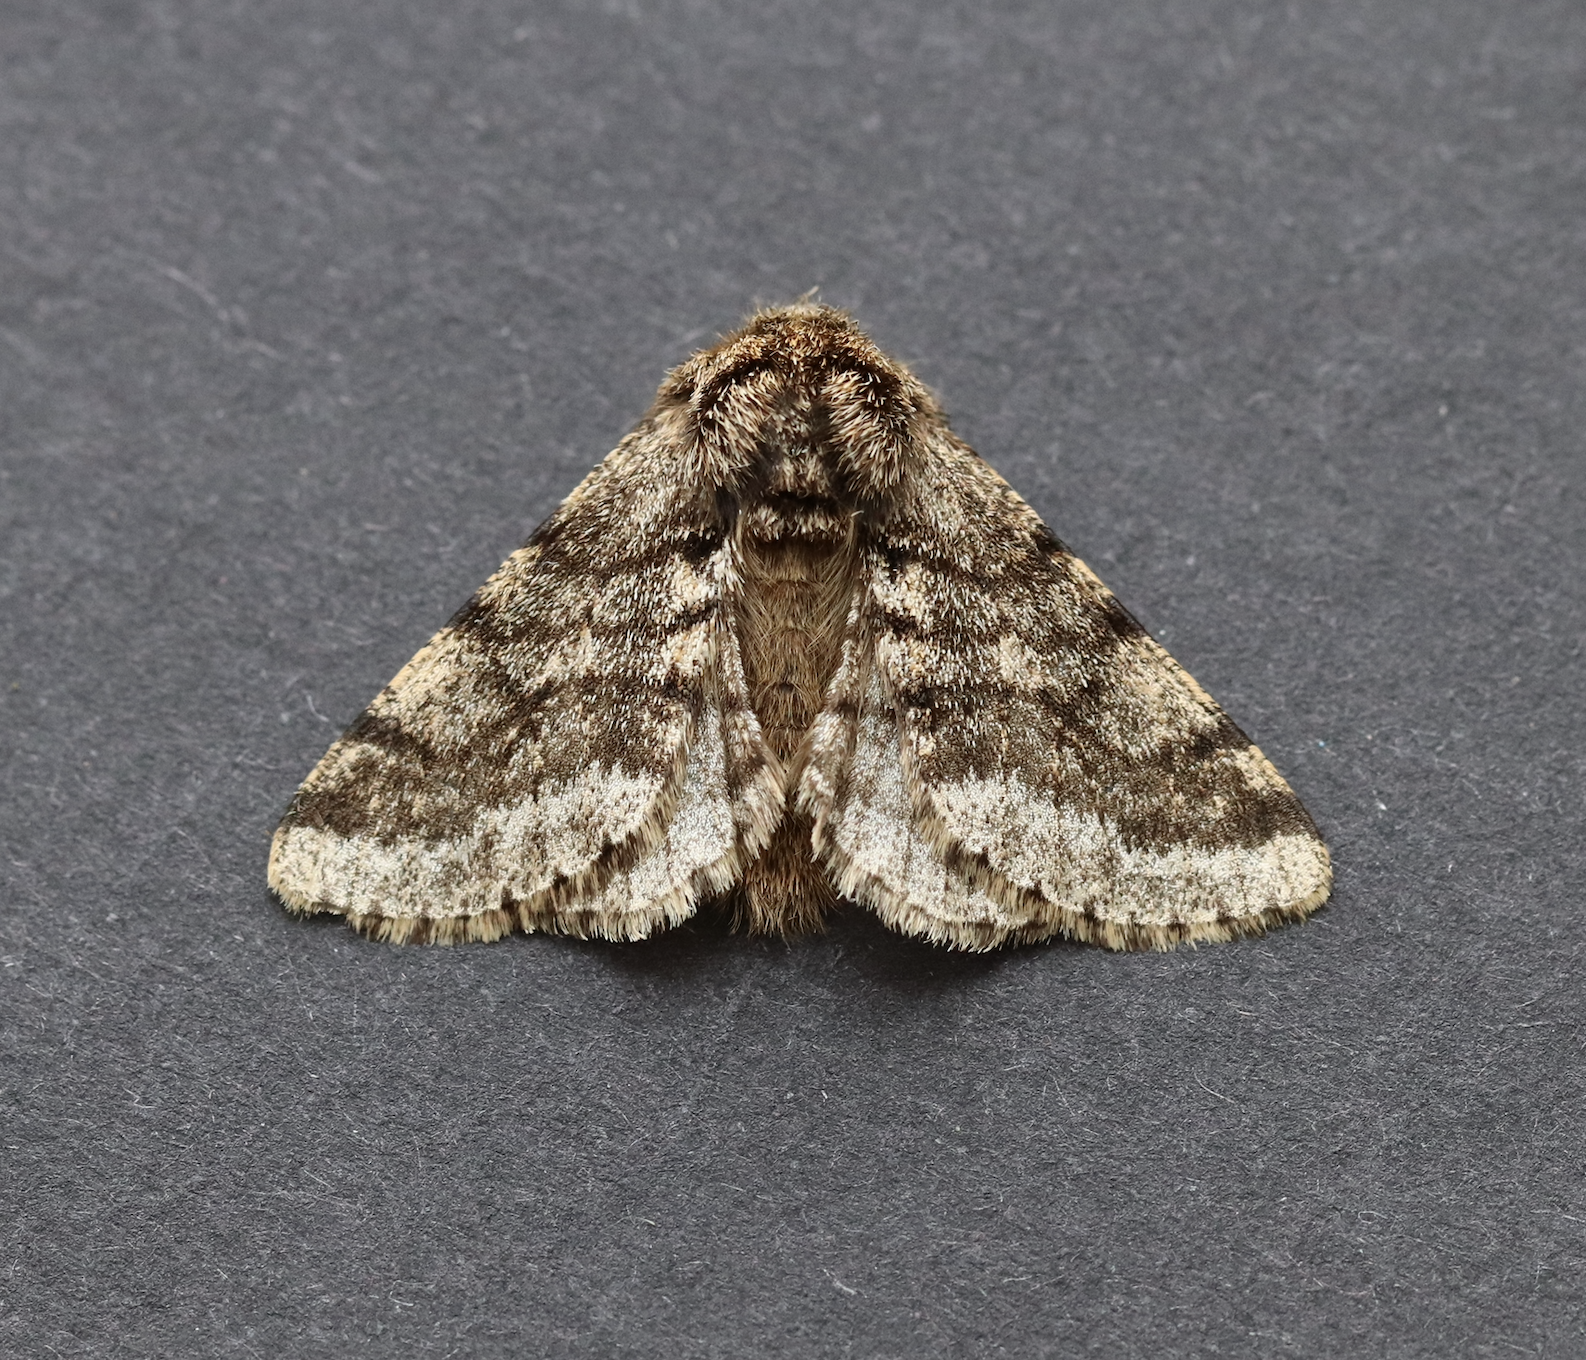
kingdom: Animalia
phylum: Arthropoda
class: Insecta
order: Lepidoptera
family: Geometridae
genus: Lycia
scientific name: Lycia hirtaria
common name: Brindled beauty
